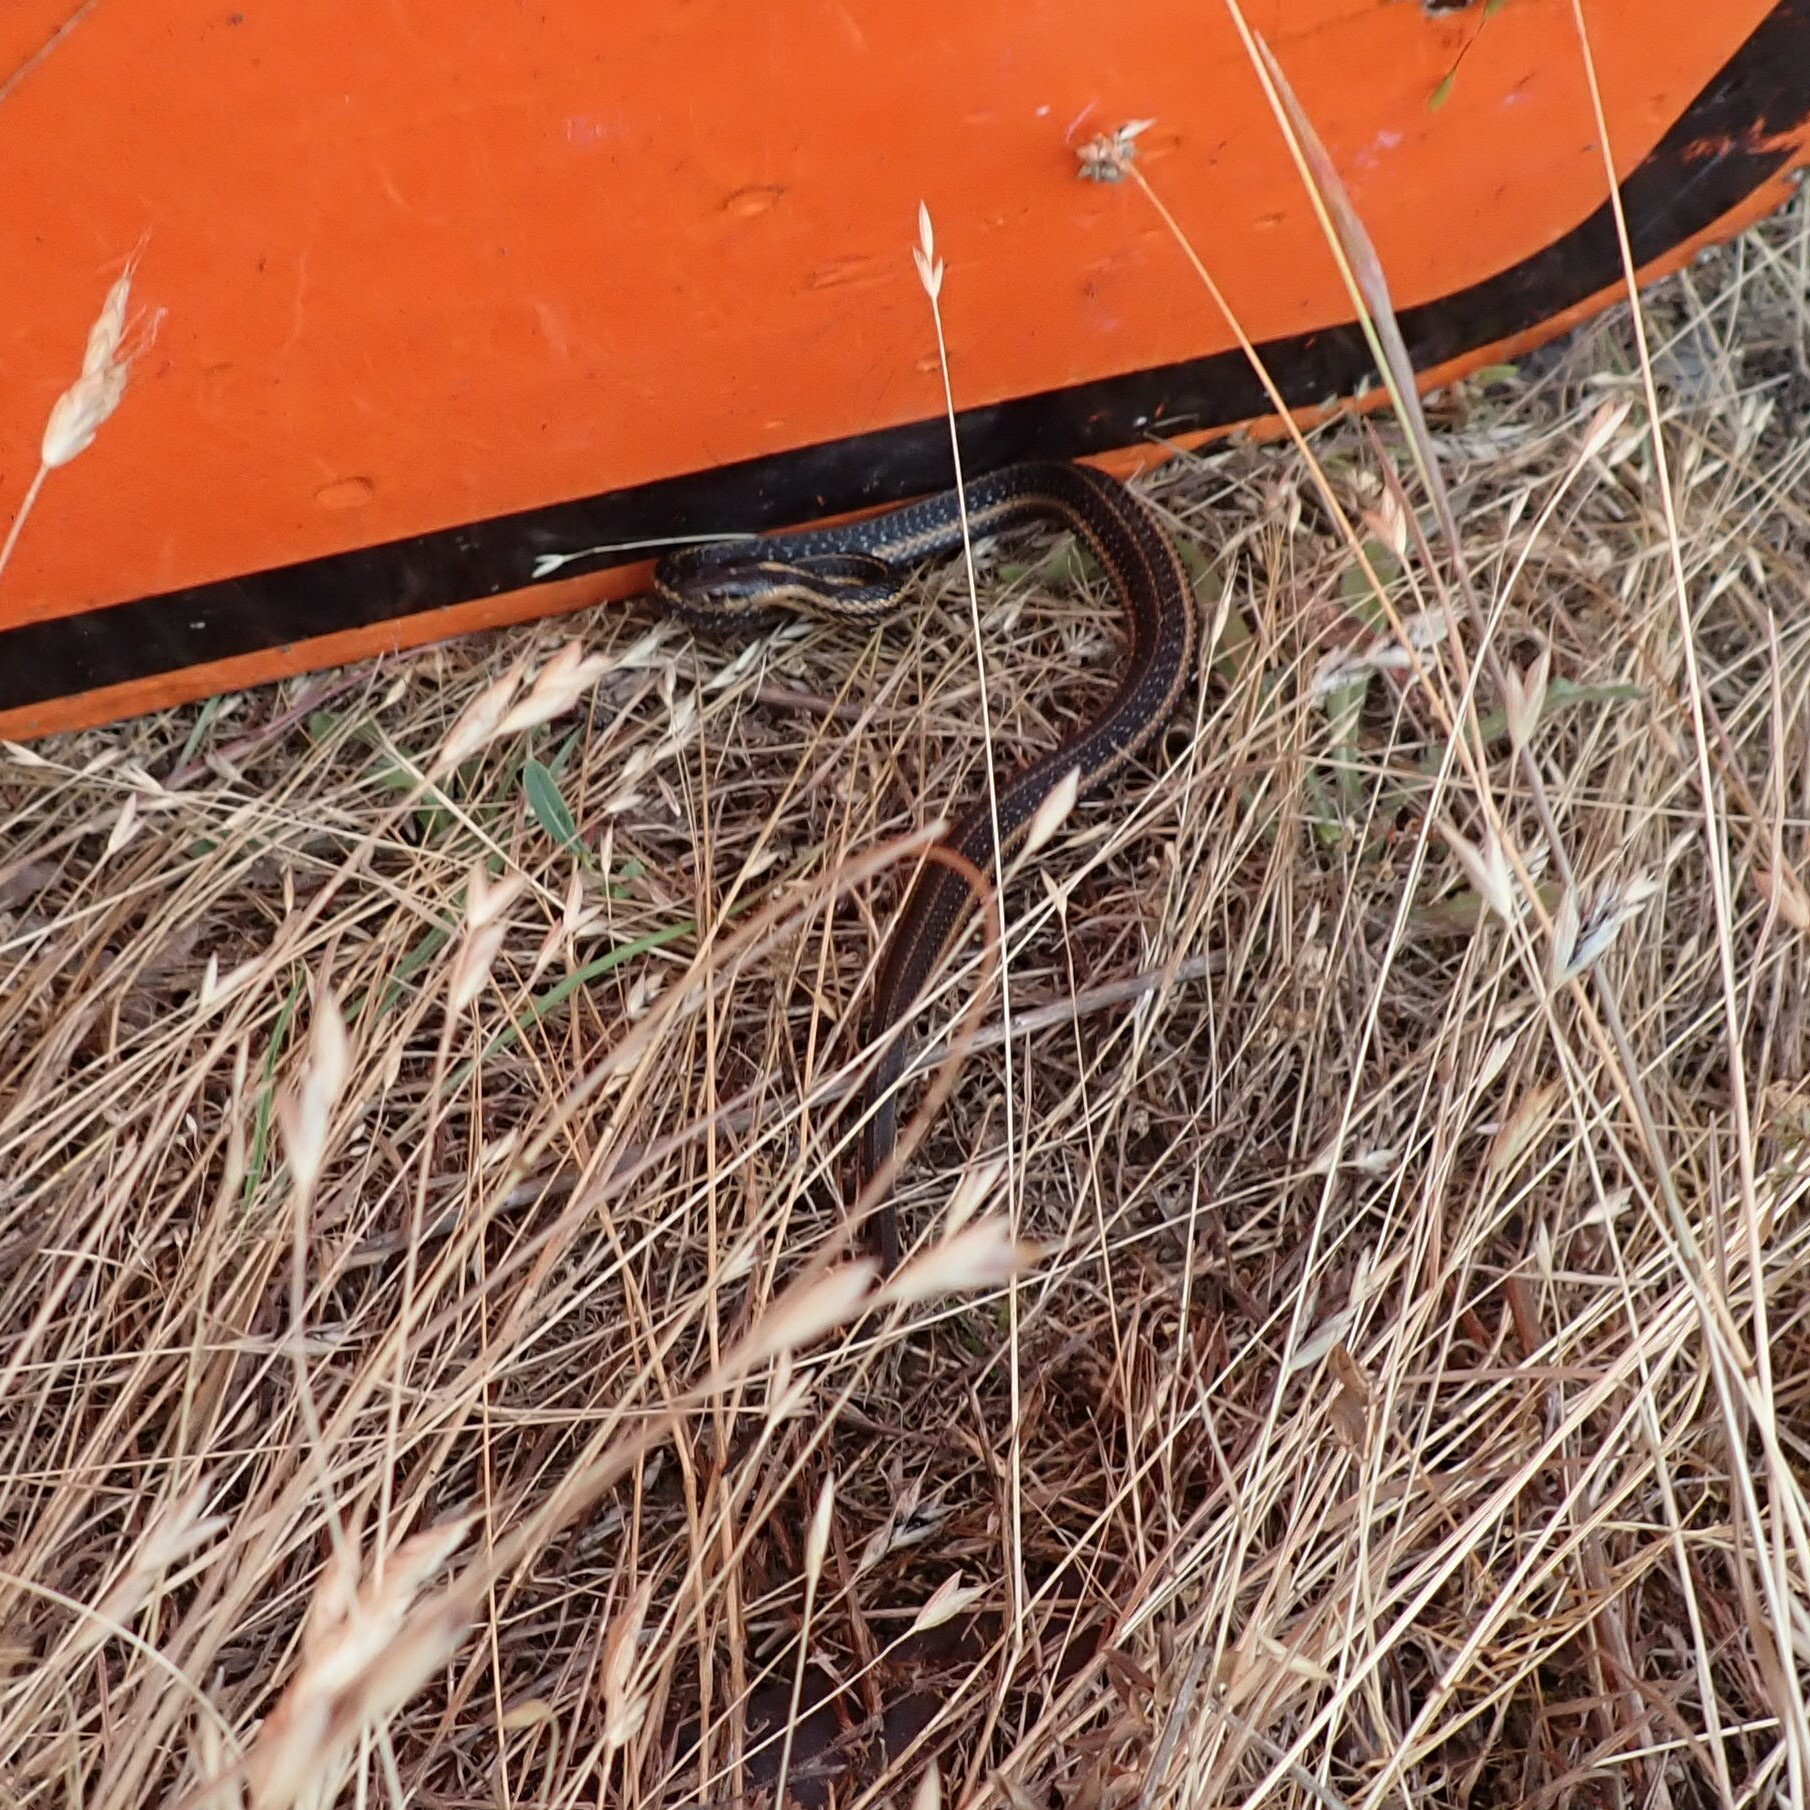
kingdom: Animalia
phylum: Chordata
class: Squamata
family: Colubridae
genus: Thamnophis
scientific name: Thamnophis ordinoides
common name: Northwestern garter snake
